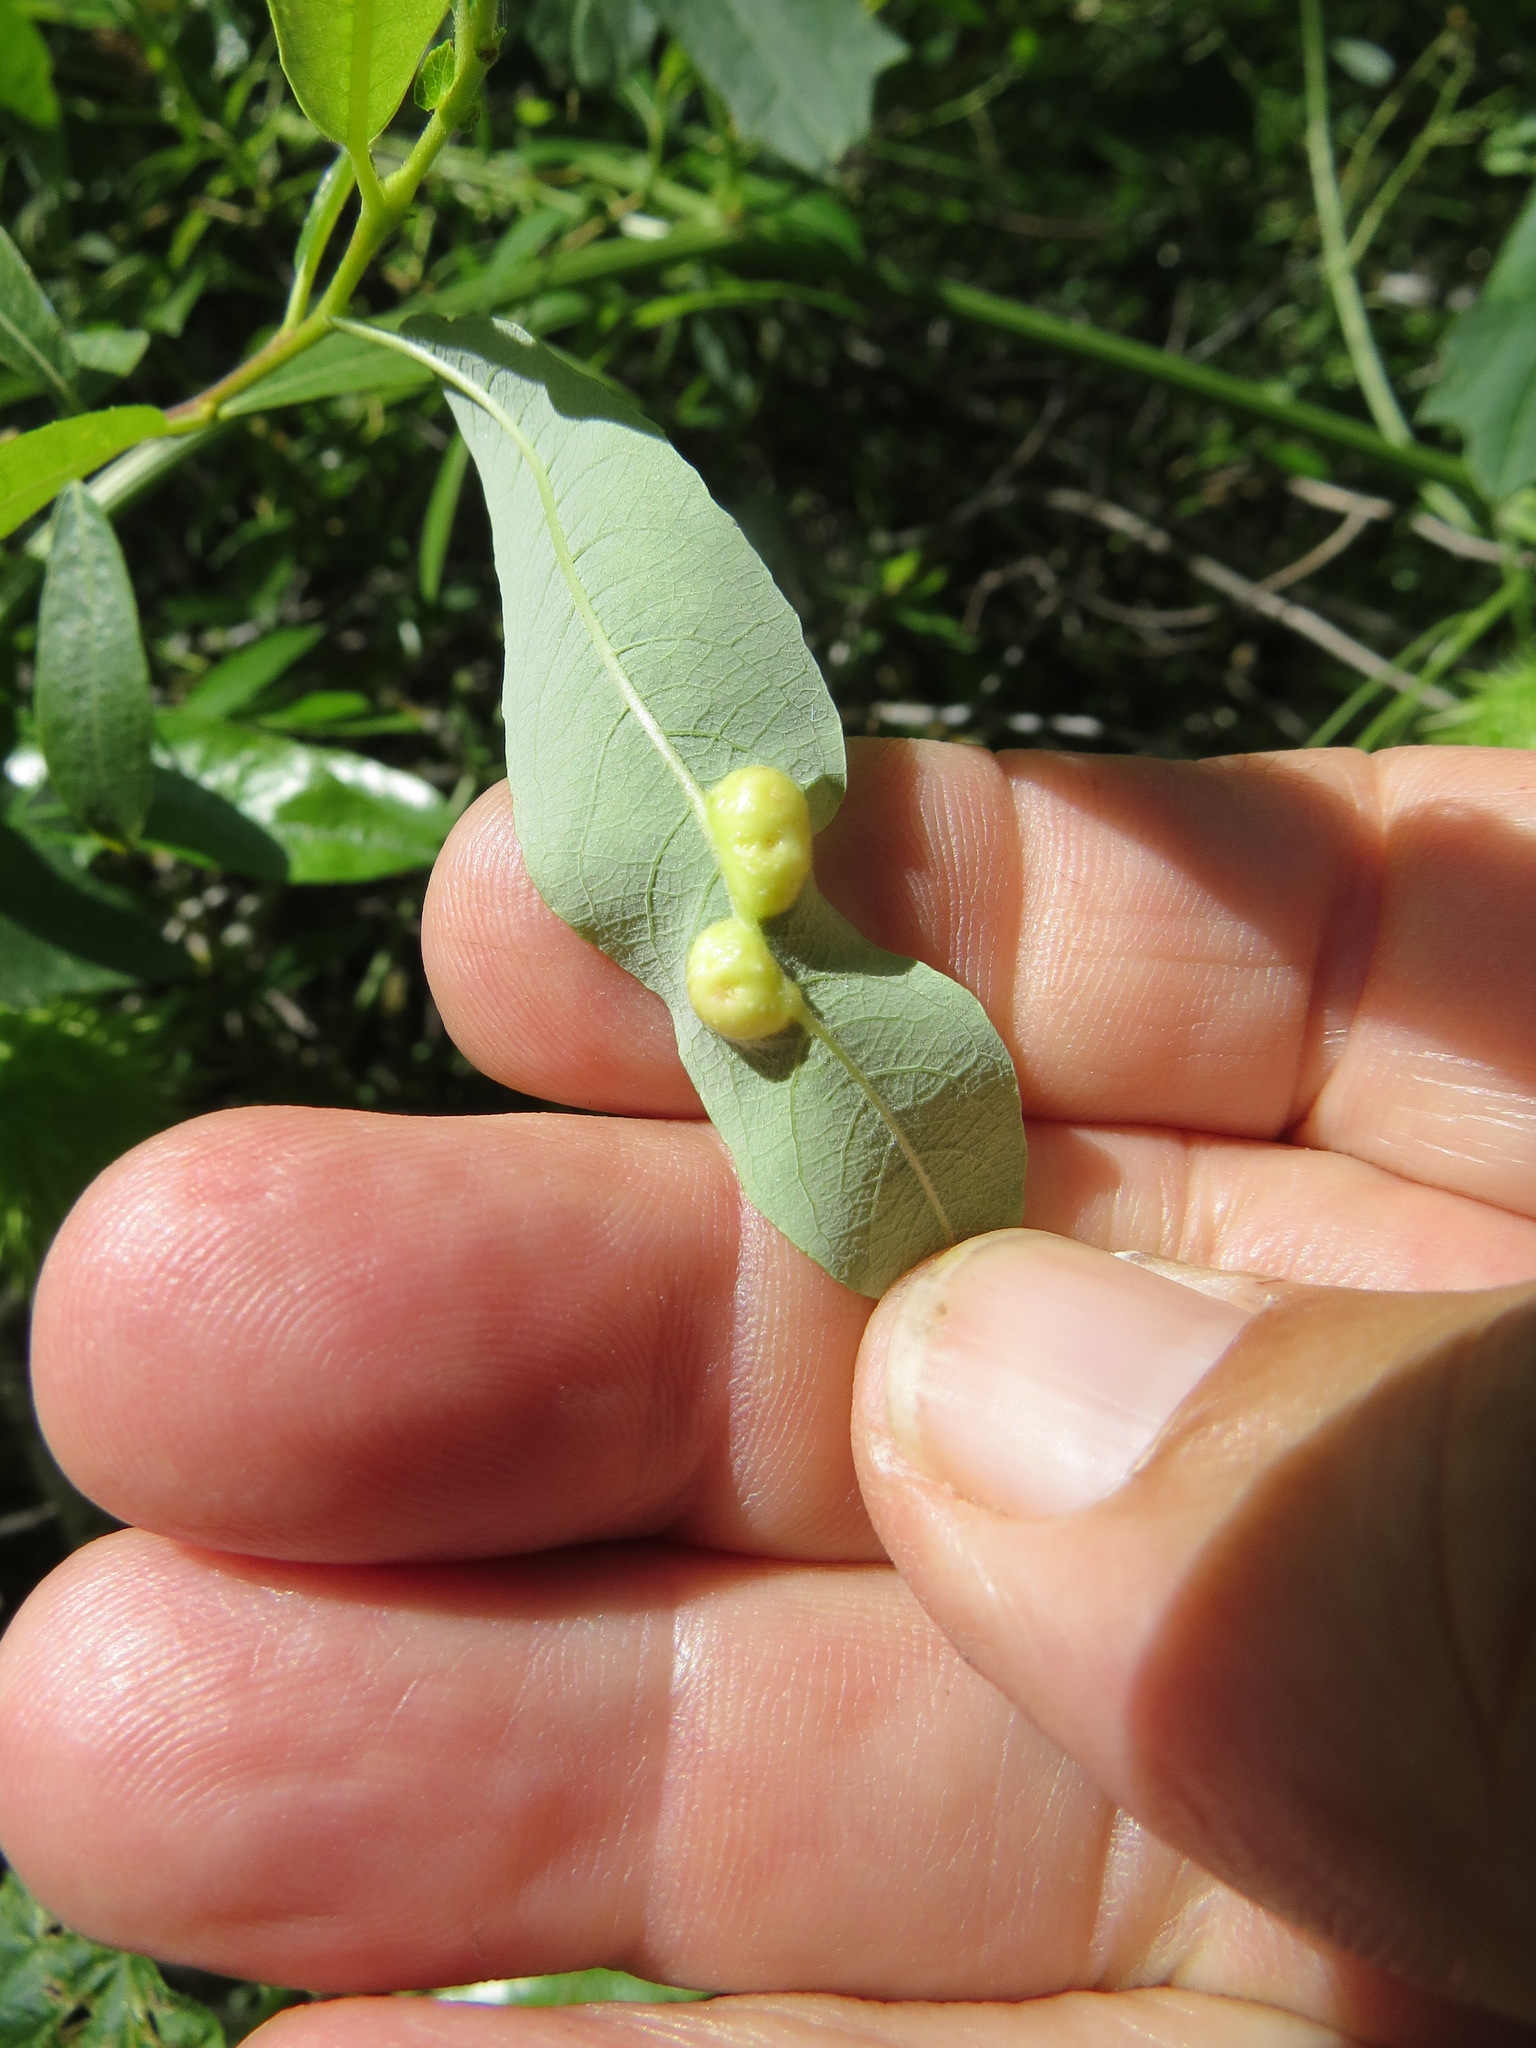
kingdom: Animalia
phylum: Arthropoda
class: Insecta
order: Hymenoptera
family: Tenthredinidae
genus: Euura
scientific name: Euura
